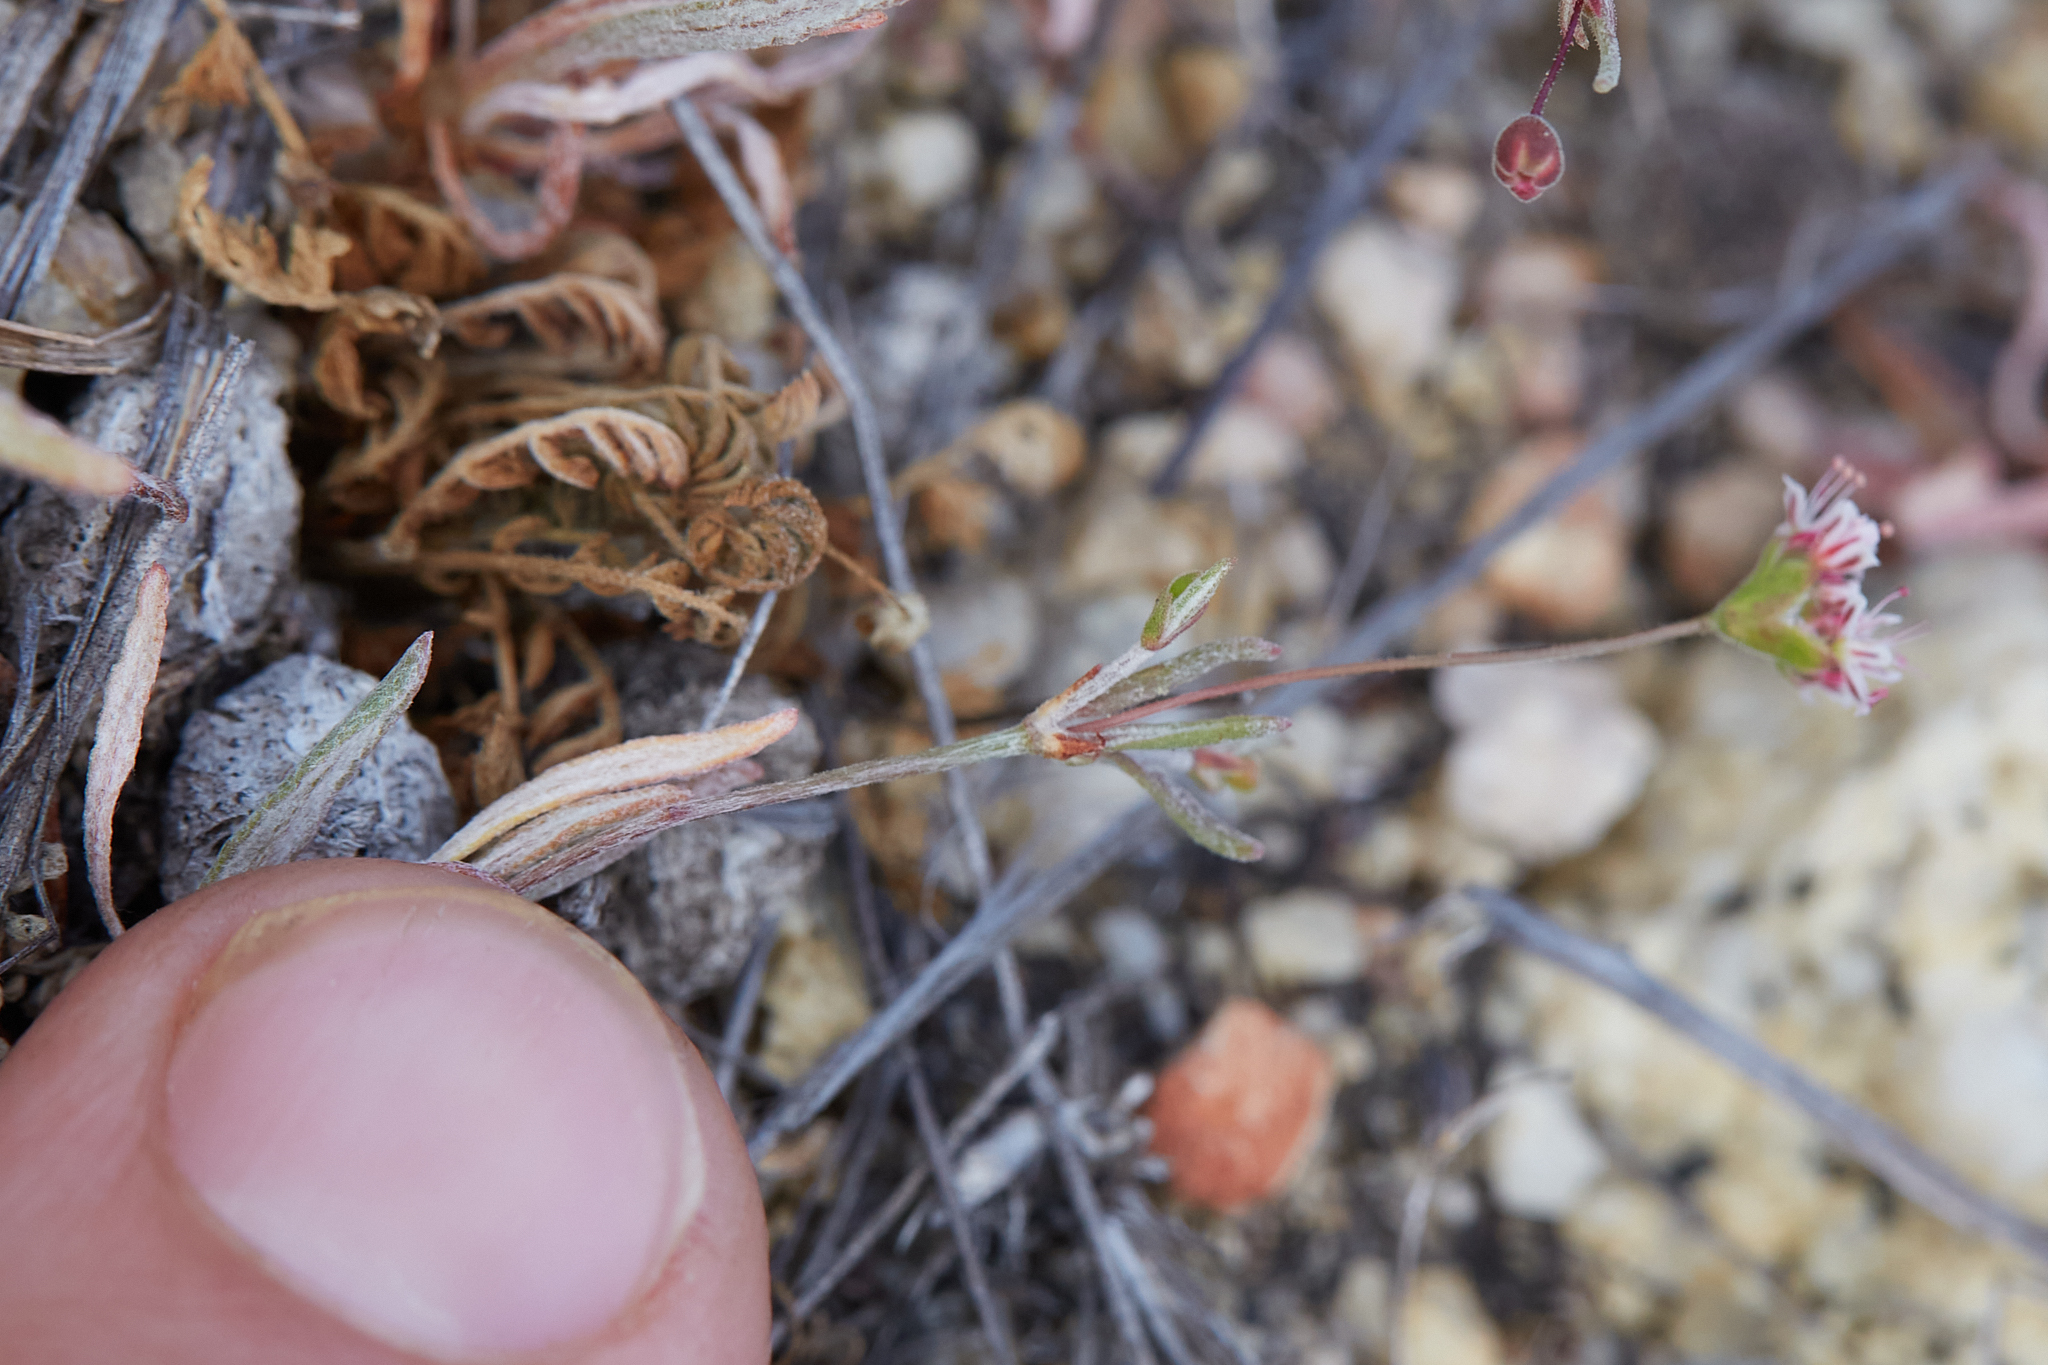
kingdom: Plantae
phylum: Tracheophyta
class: Magnoliopsida
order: Caryophyllales
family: Polygonaceae
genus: Eriogonum
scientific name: Eriogonum angulosum
